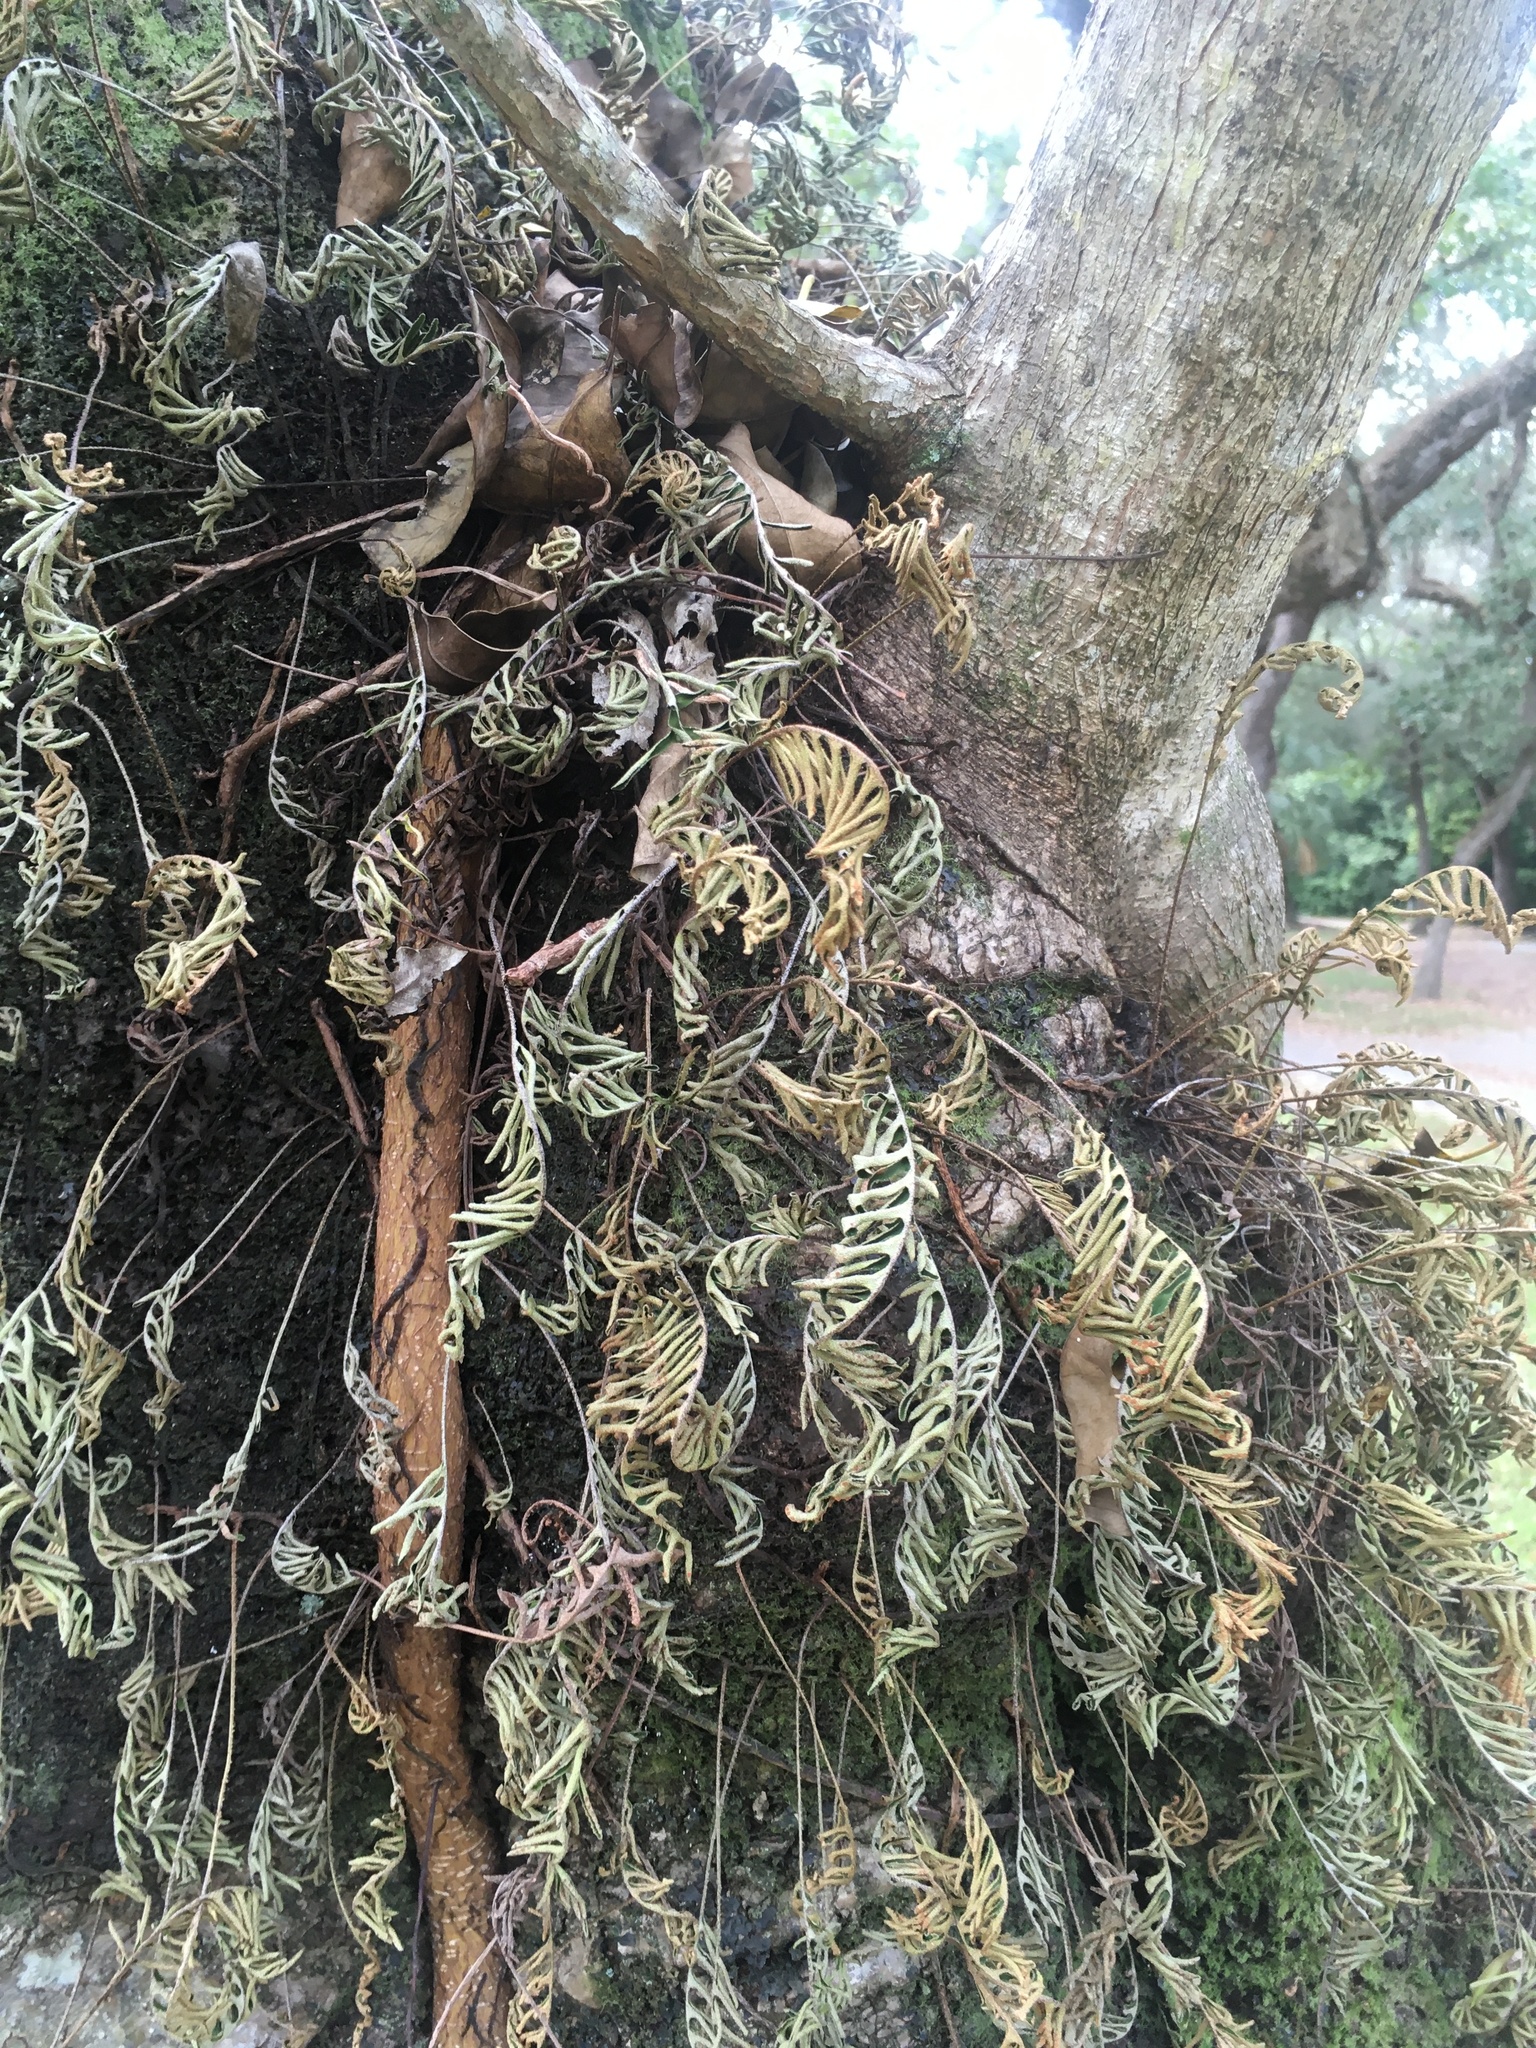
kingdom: Plantae
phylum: Tracheophyta
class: Polypodiopsida
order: Polypodiales
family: Polypodiaceae
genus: Pleopeltis
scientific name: Pleopeltis michauxiana
